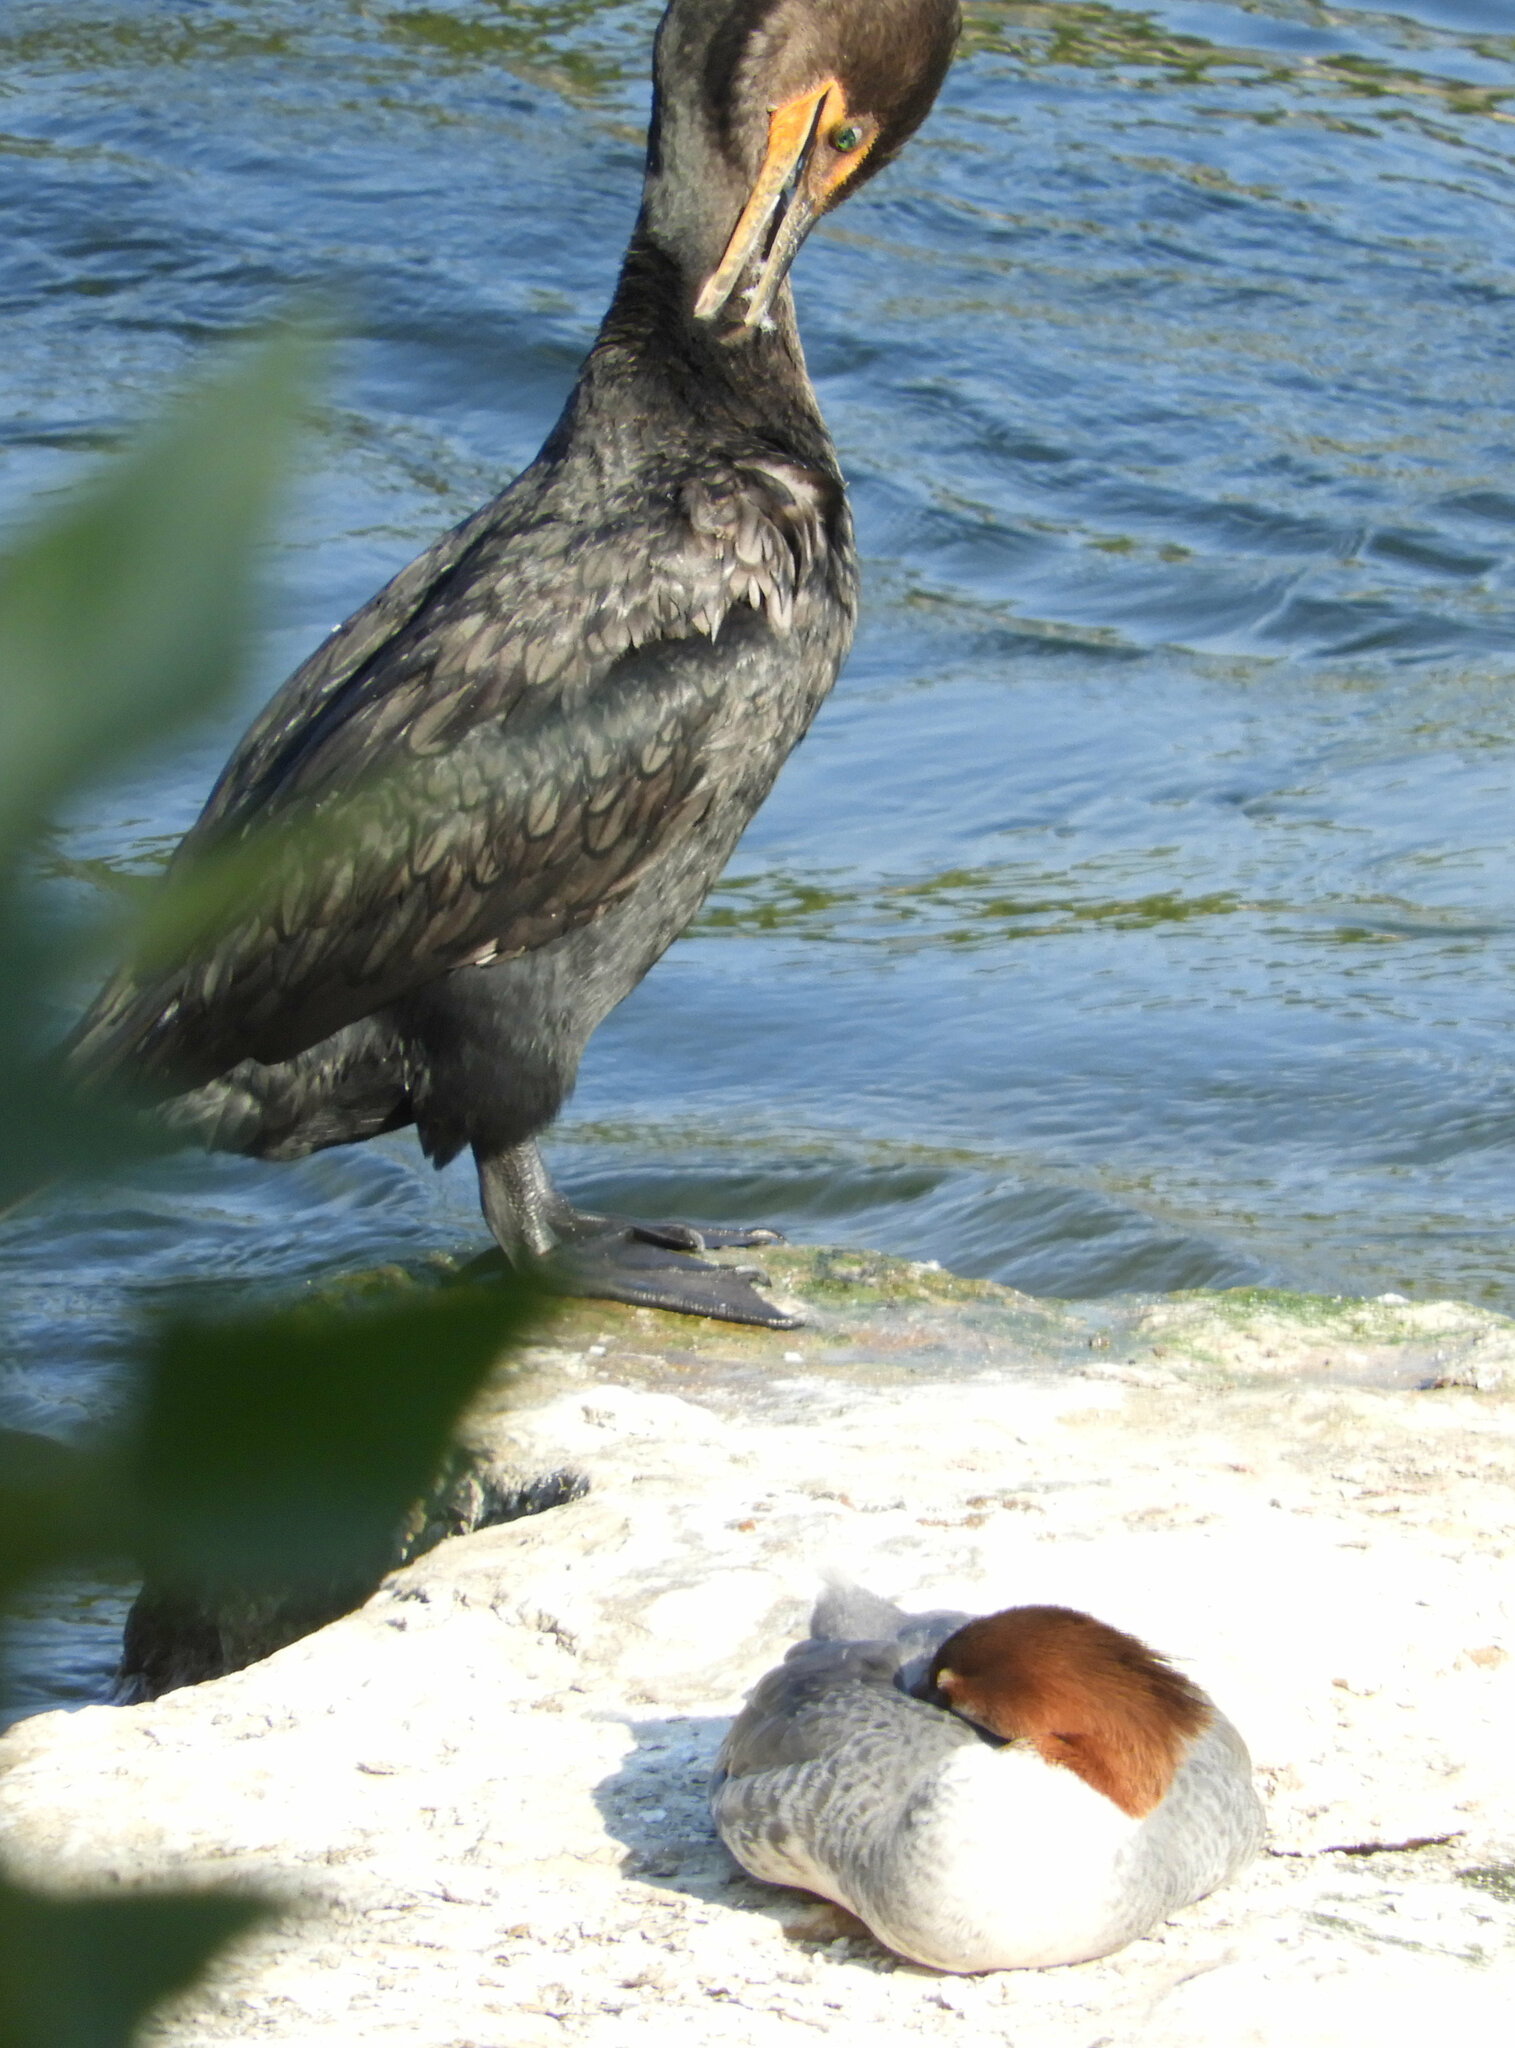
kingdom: Animalia
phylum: Chordata
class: Aves
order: Anseriformes
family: Anatidae
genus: Mergus
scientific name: Mergus merganser
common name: Common merganser
